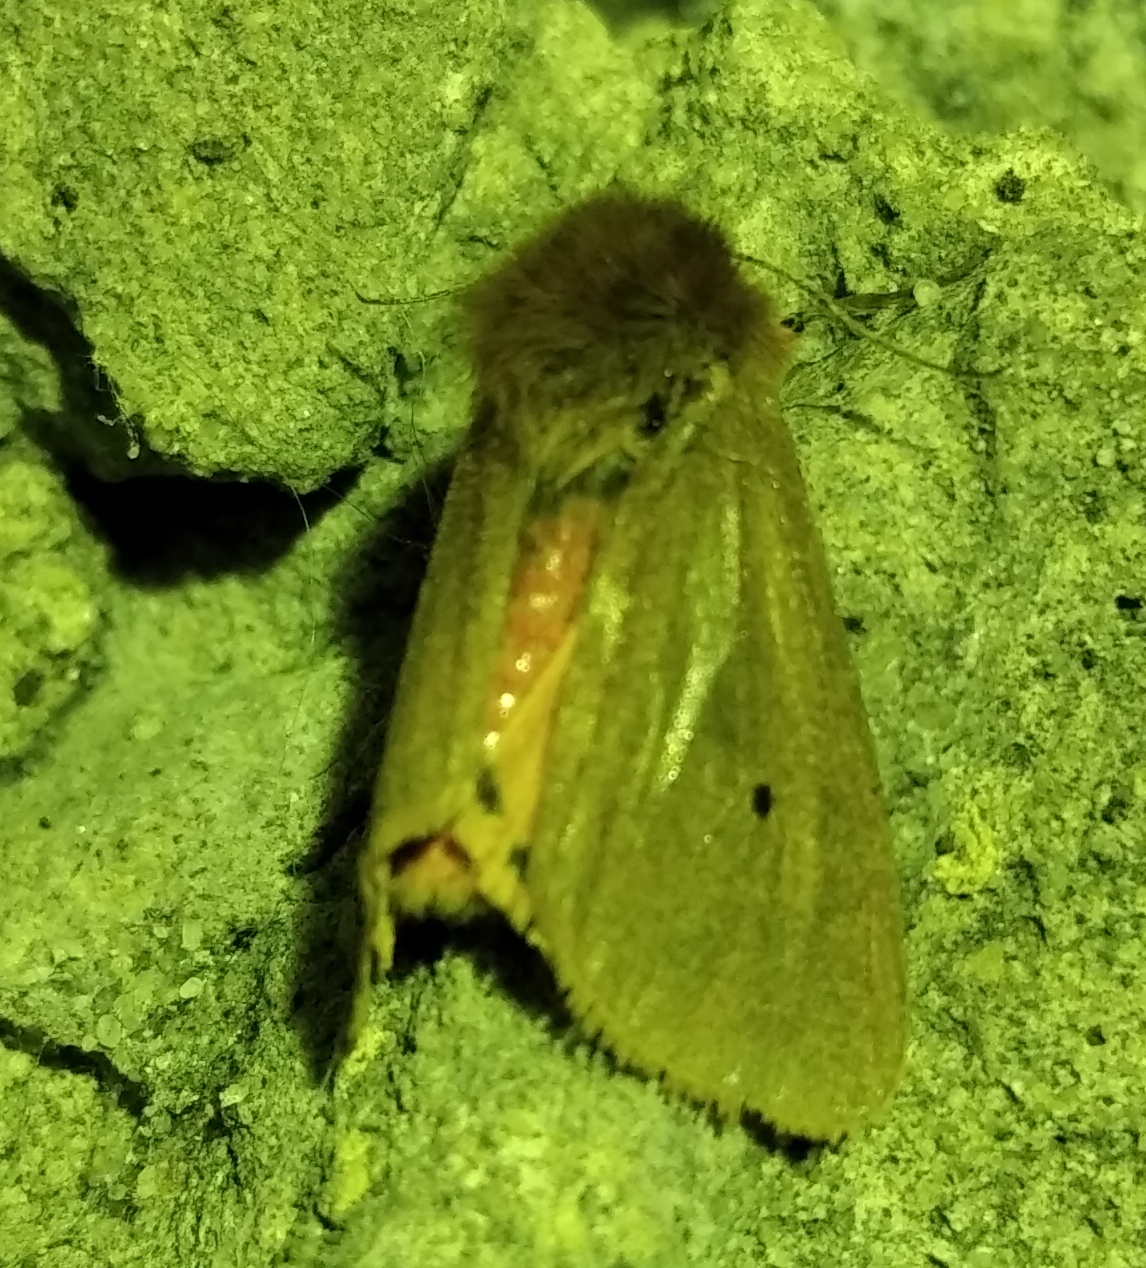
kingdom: Animalia
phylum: Arthropoda
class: Insecta
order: Lepidoptera
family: Erebidae
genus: Phragmatobia
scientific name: Phragmatobia fuliginosa
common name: Ruby tiger
